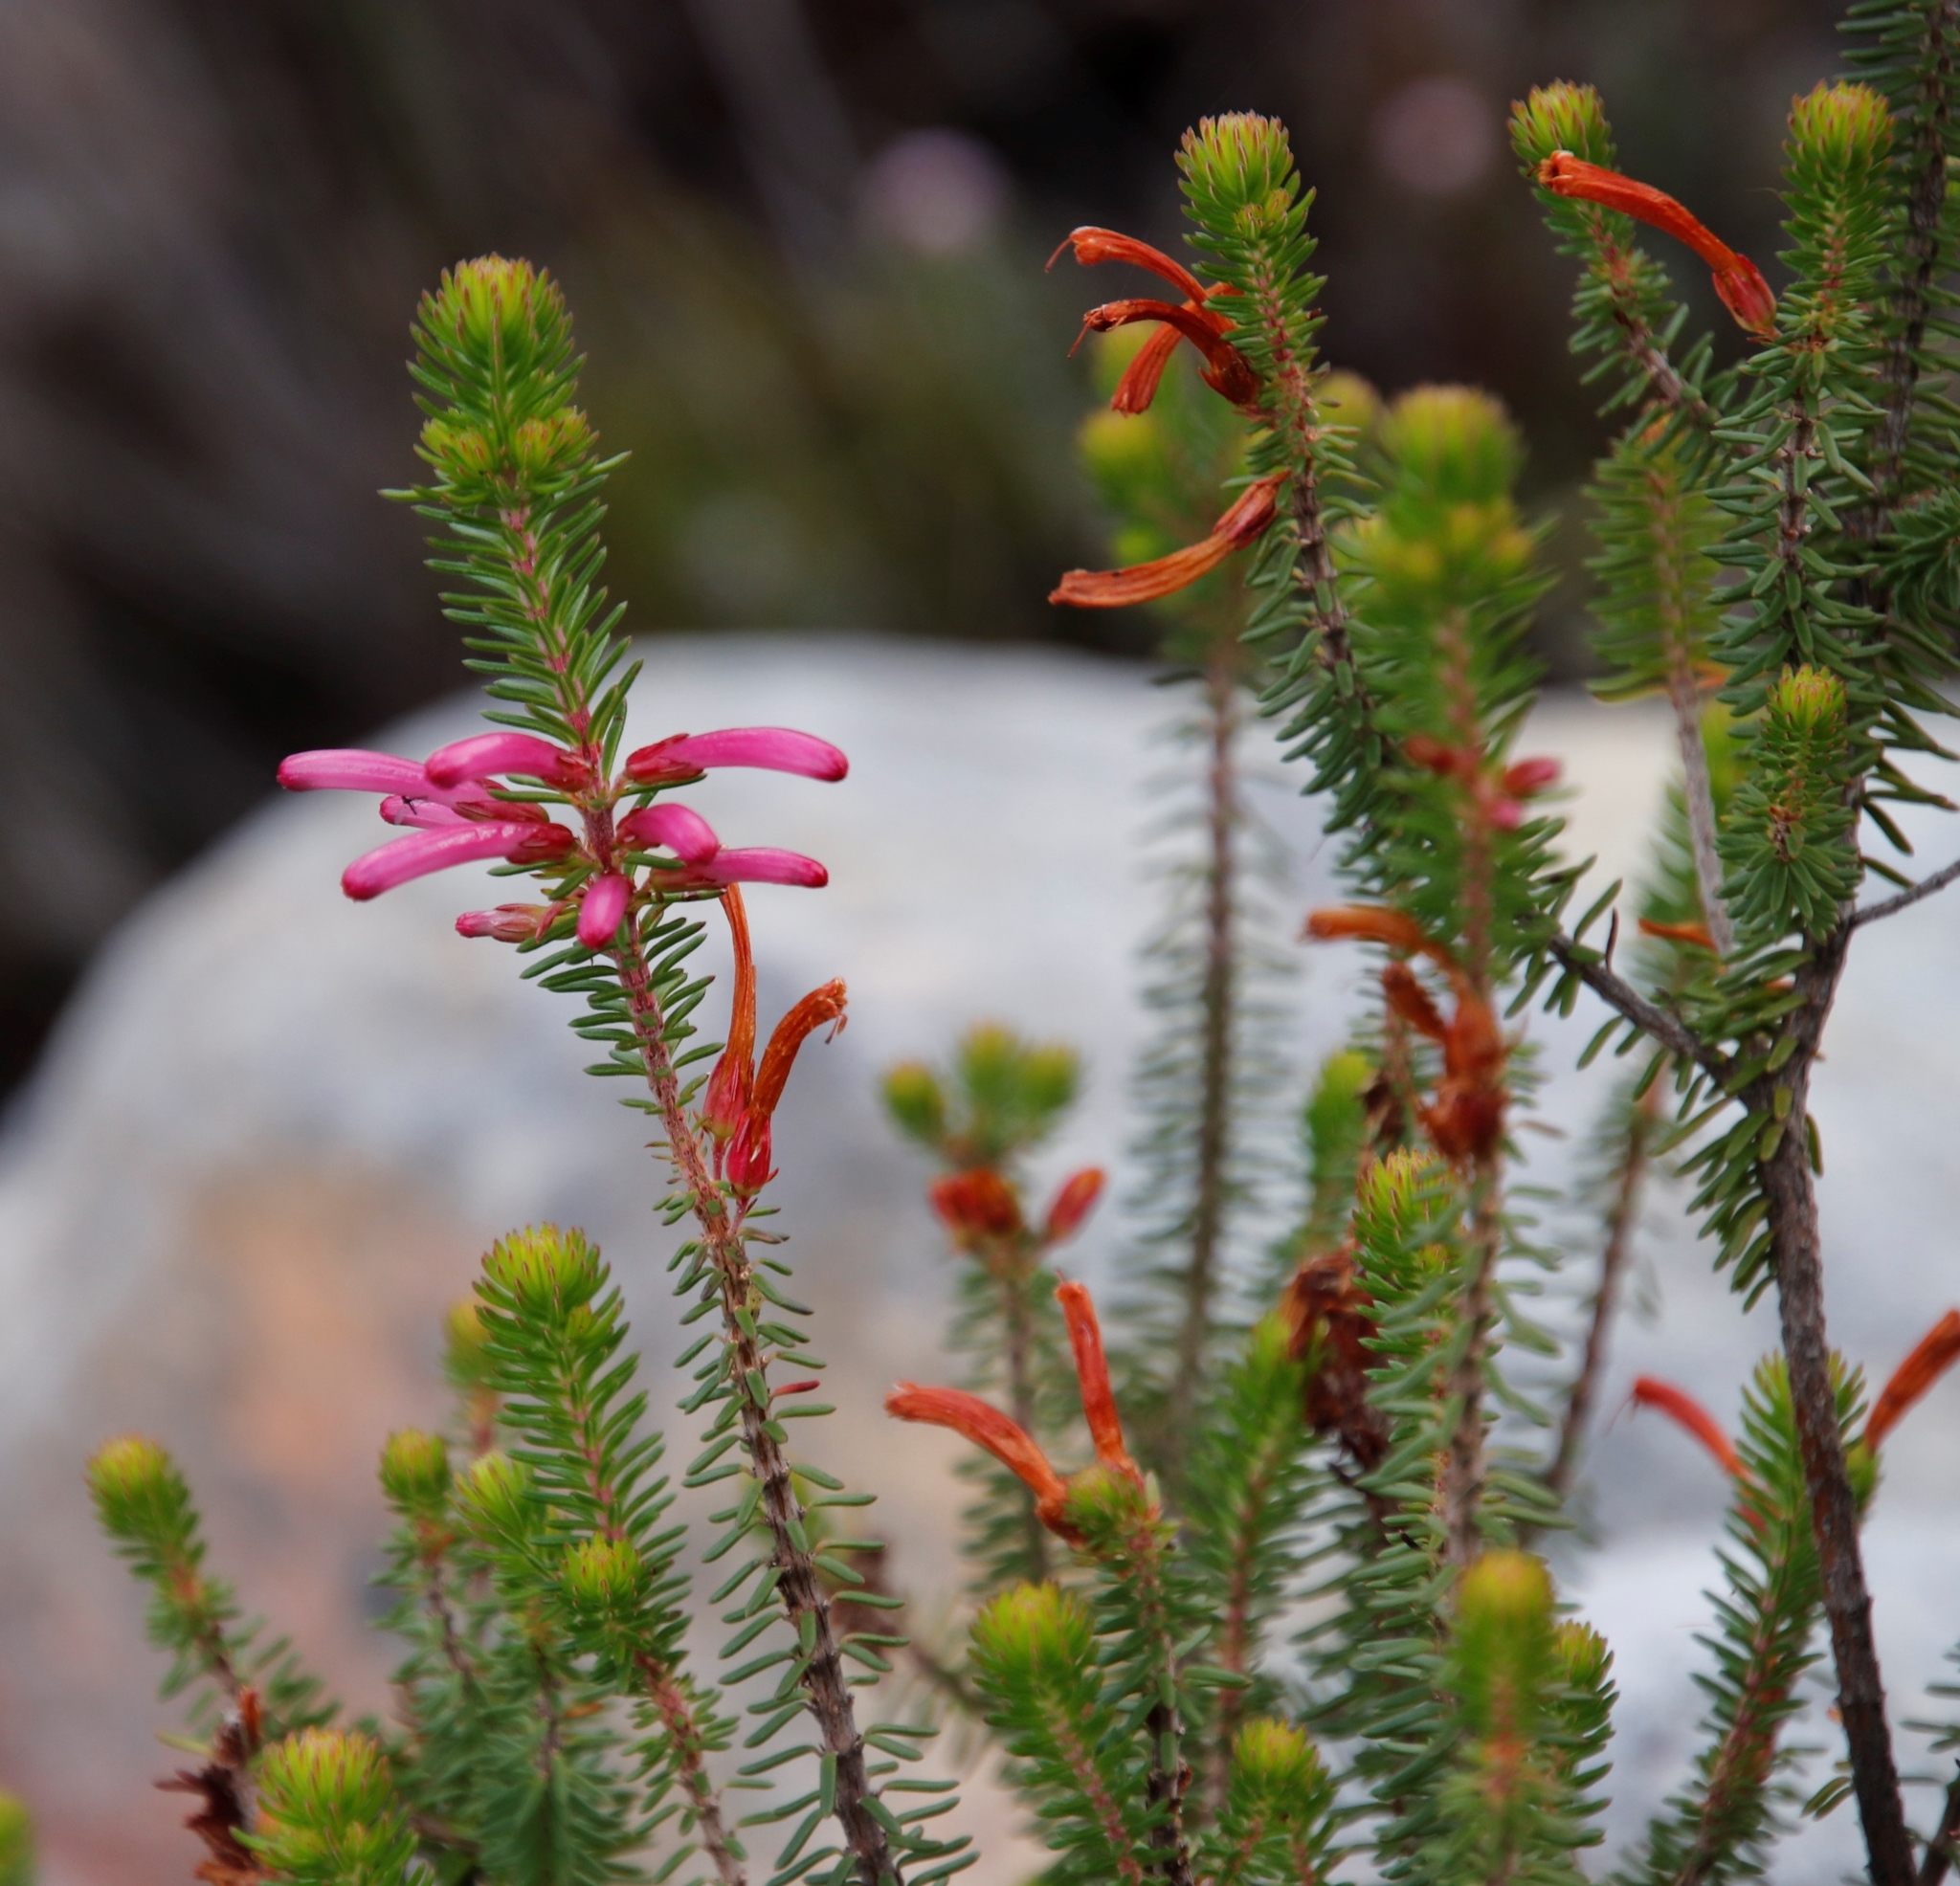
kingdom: Plantae
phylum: Tracheophyta
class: Magnoliopsida
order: Ericales
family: Ericaceae
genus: Erica
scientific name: Erica abietina
